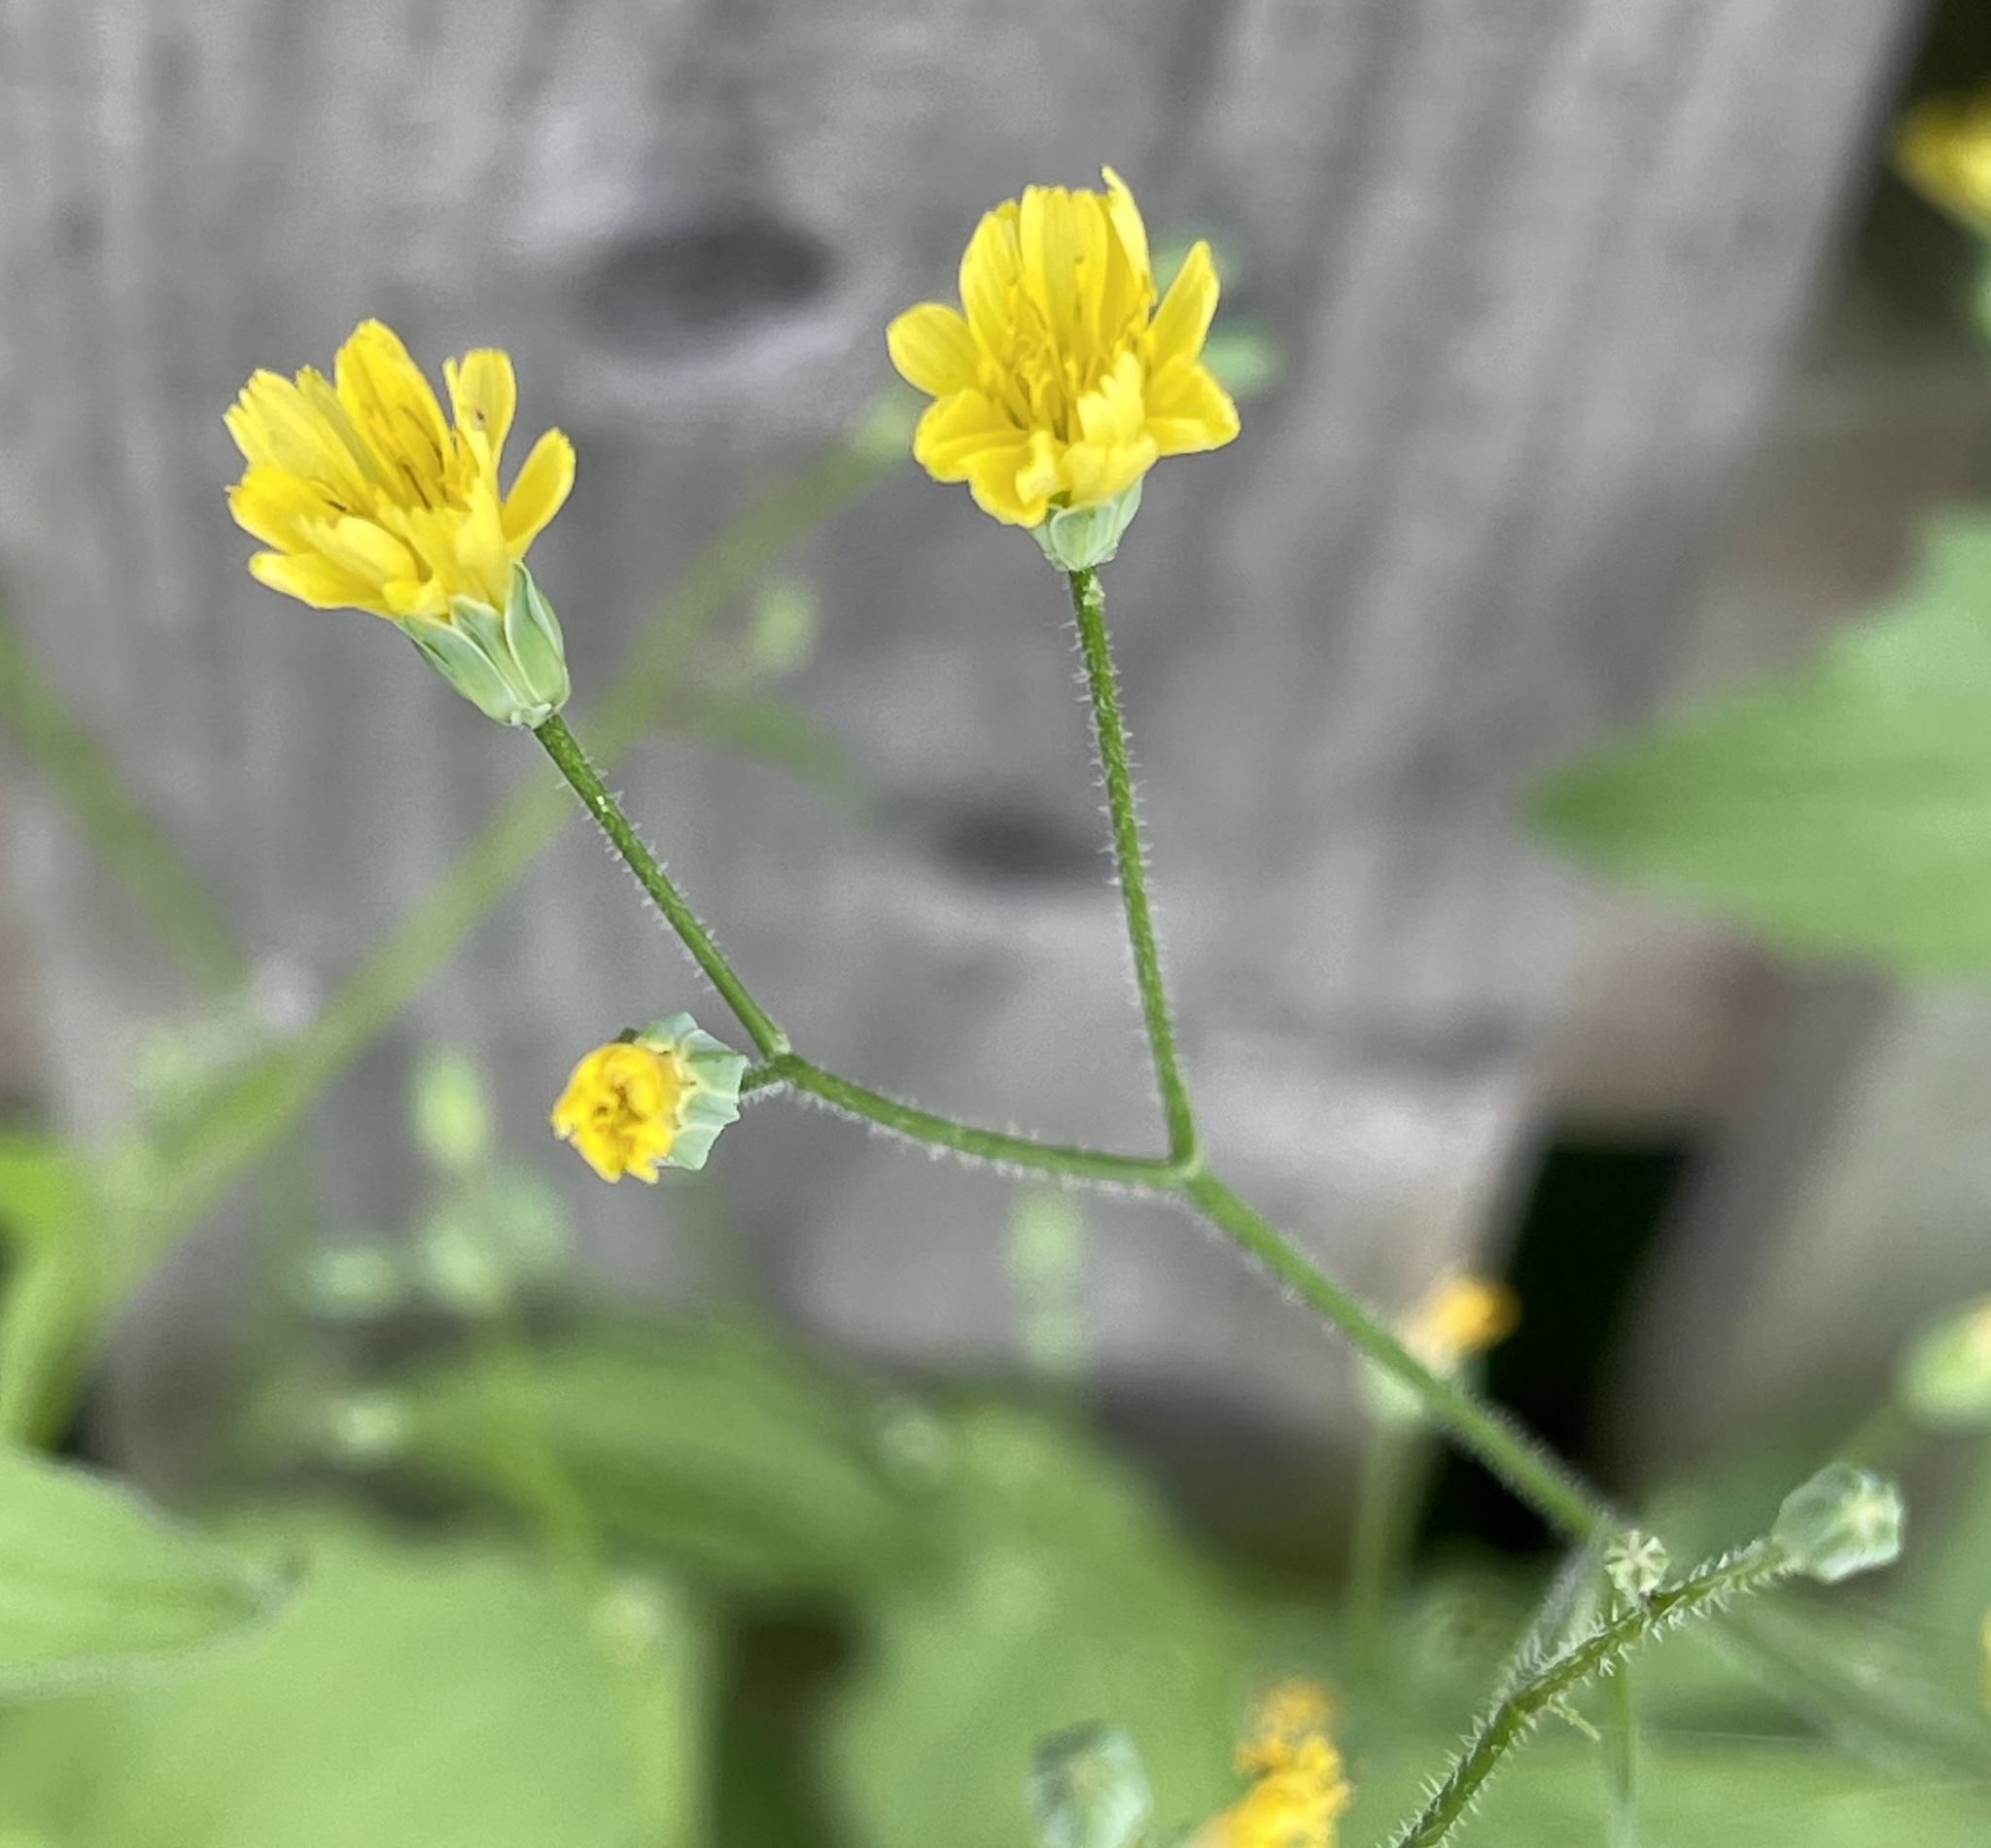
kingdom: Plantae
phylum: Tracheophyta
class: Magnoliopsida
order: Asterales
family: Asteraceae
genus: Lapsana
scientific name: Lapsana communis
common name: Nipplewort
